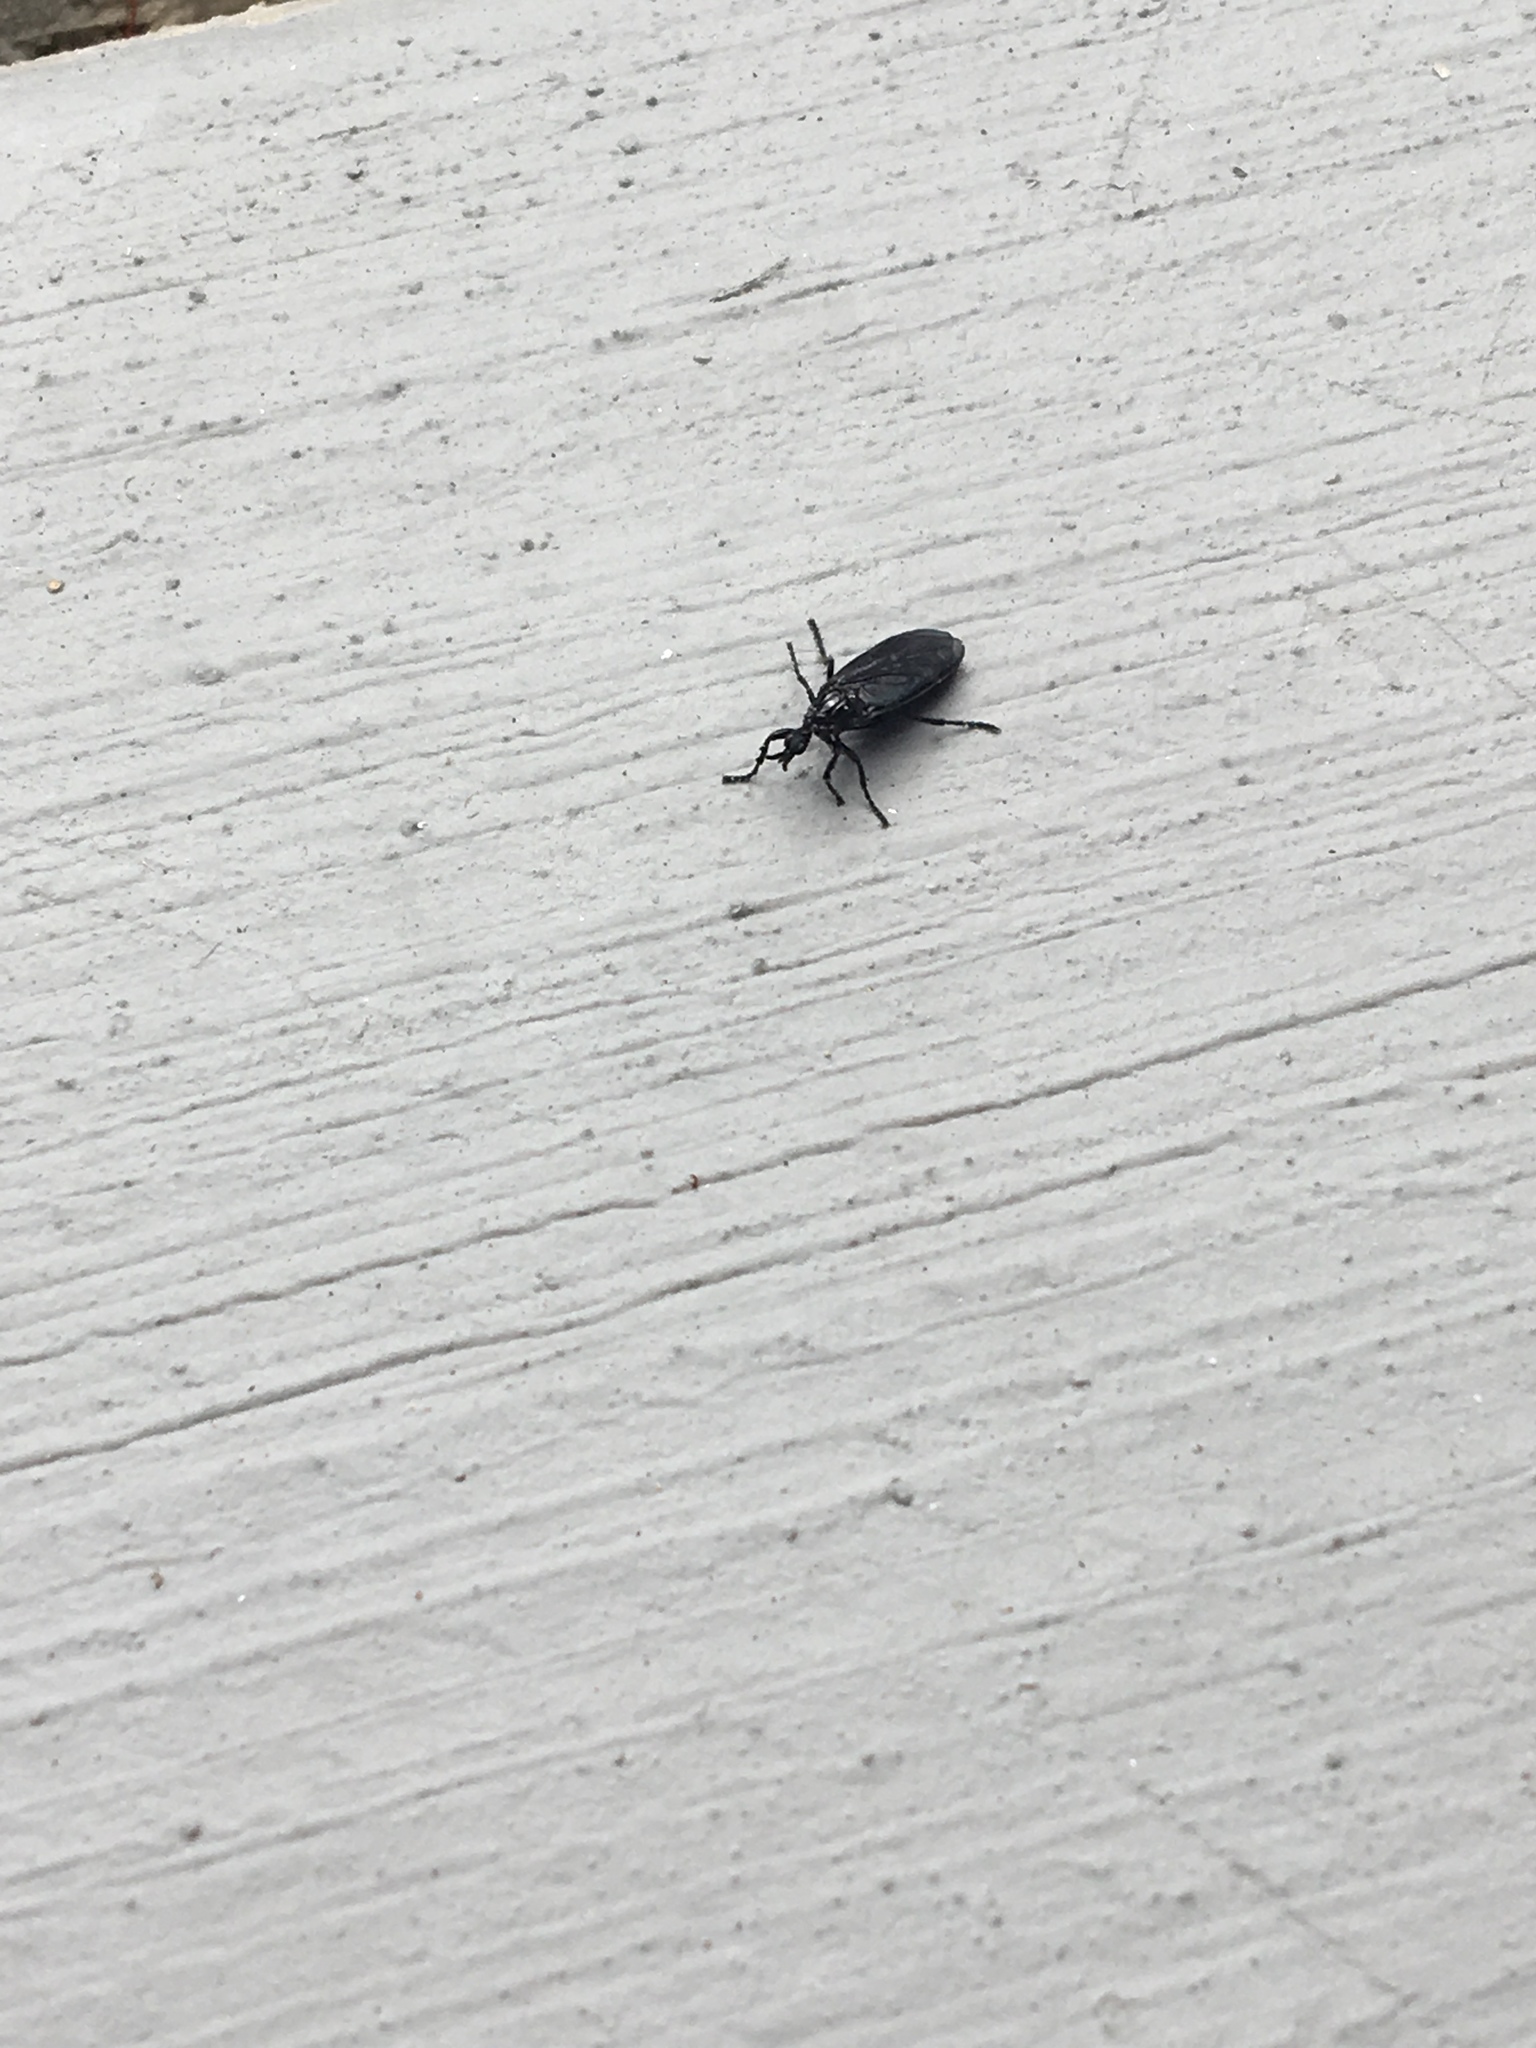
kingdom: Animalia
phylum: Arthropoda
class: Insecta
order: Diptera
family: Bibionidae
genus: Dilophus
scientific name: Dilophus orbatus
